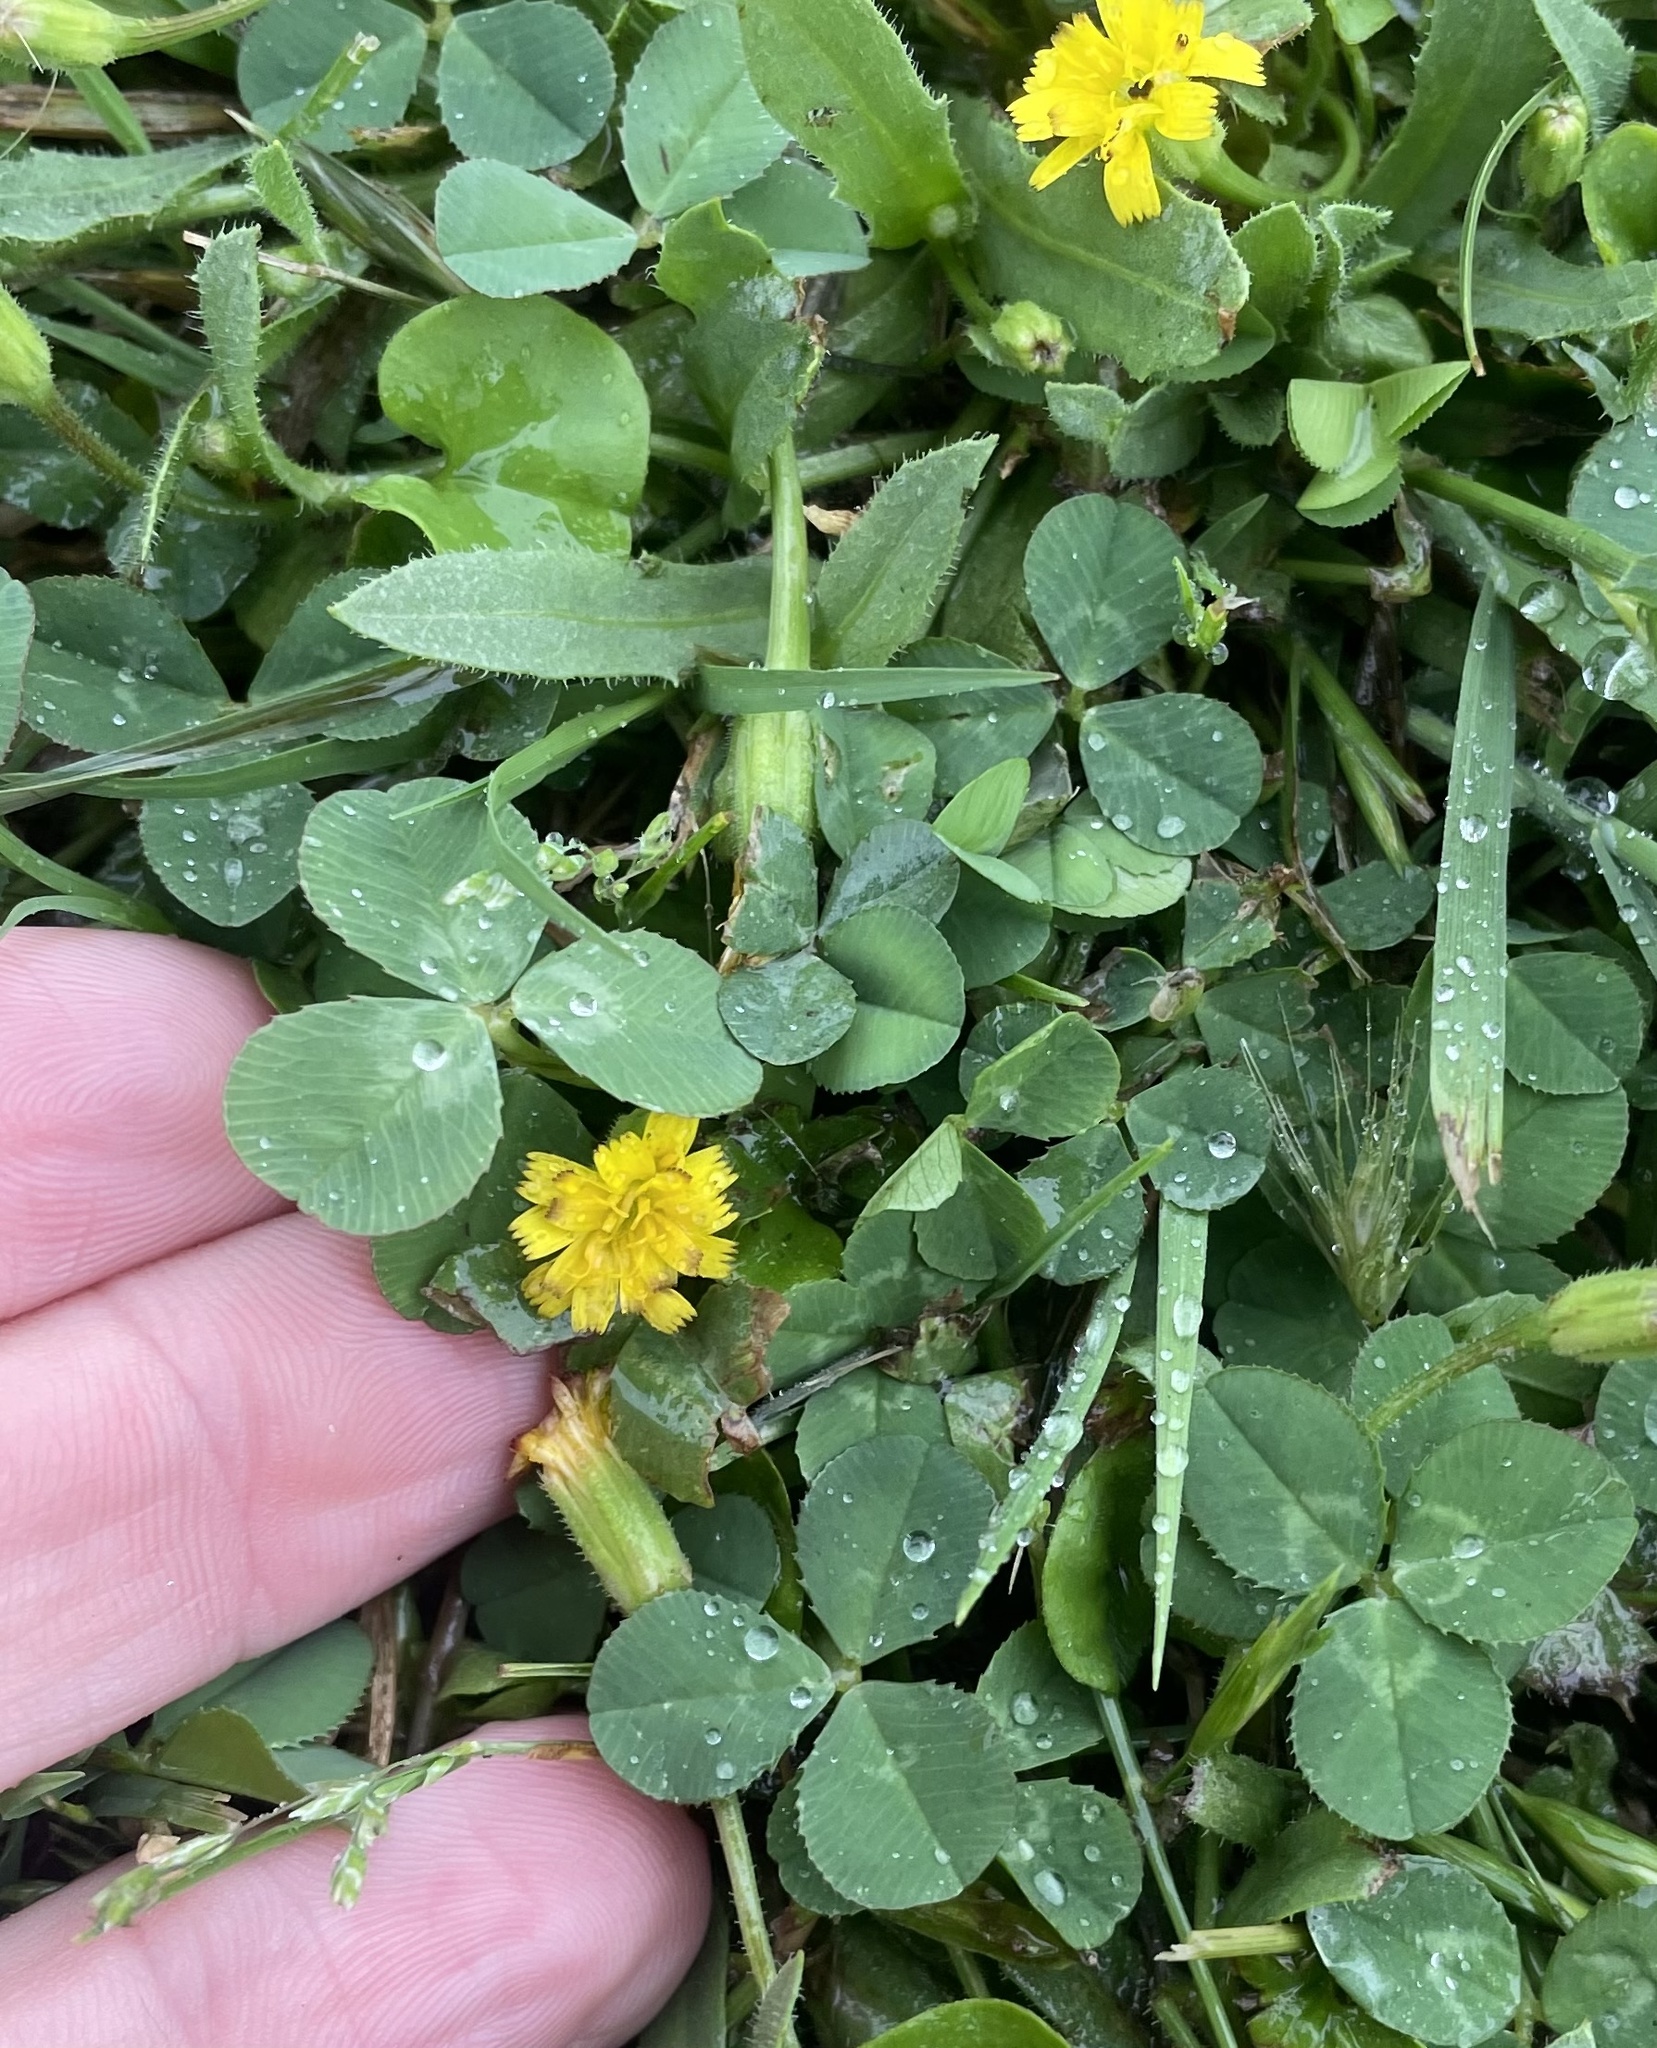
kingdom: Plantae
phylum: Tracheophyta
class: Magnoliopsida
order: Asterales
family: Asteraceae
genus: Hedypnois
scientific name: Hedypnois rhagadioloides
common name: Cretan weed
